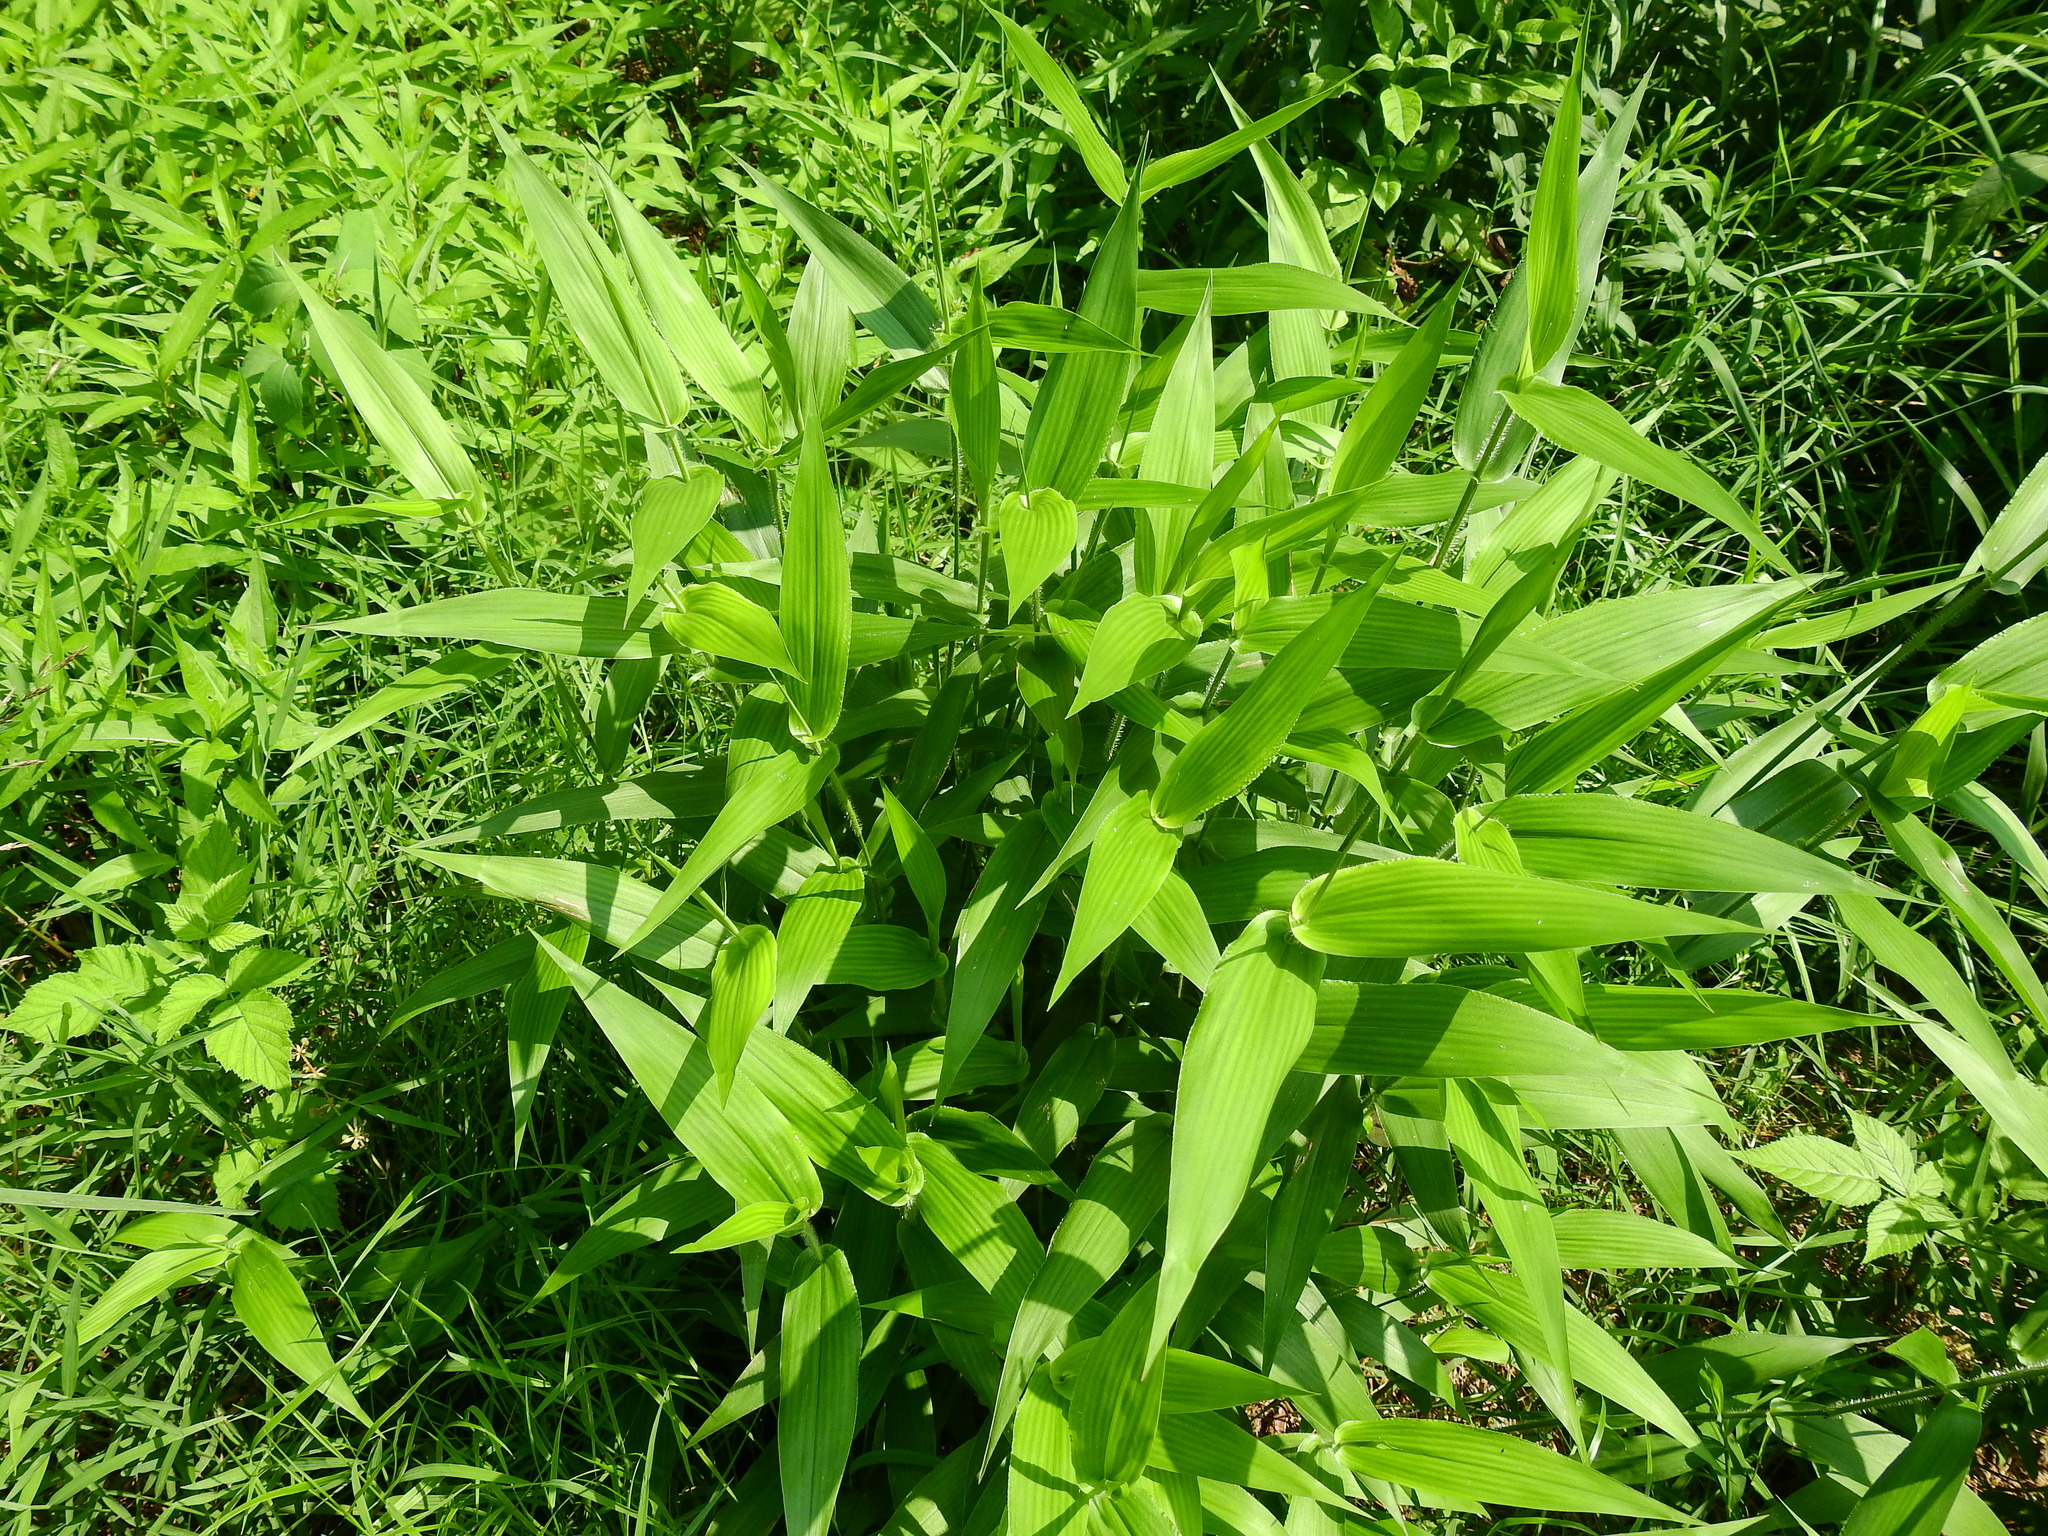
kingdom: Plantae
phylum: Tracheophyta
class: Liliopsida
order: Poales
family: Poaceae
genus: Dichanthelium
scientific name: Dichanthelium clandestinum
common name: Deer-tongue grass
